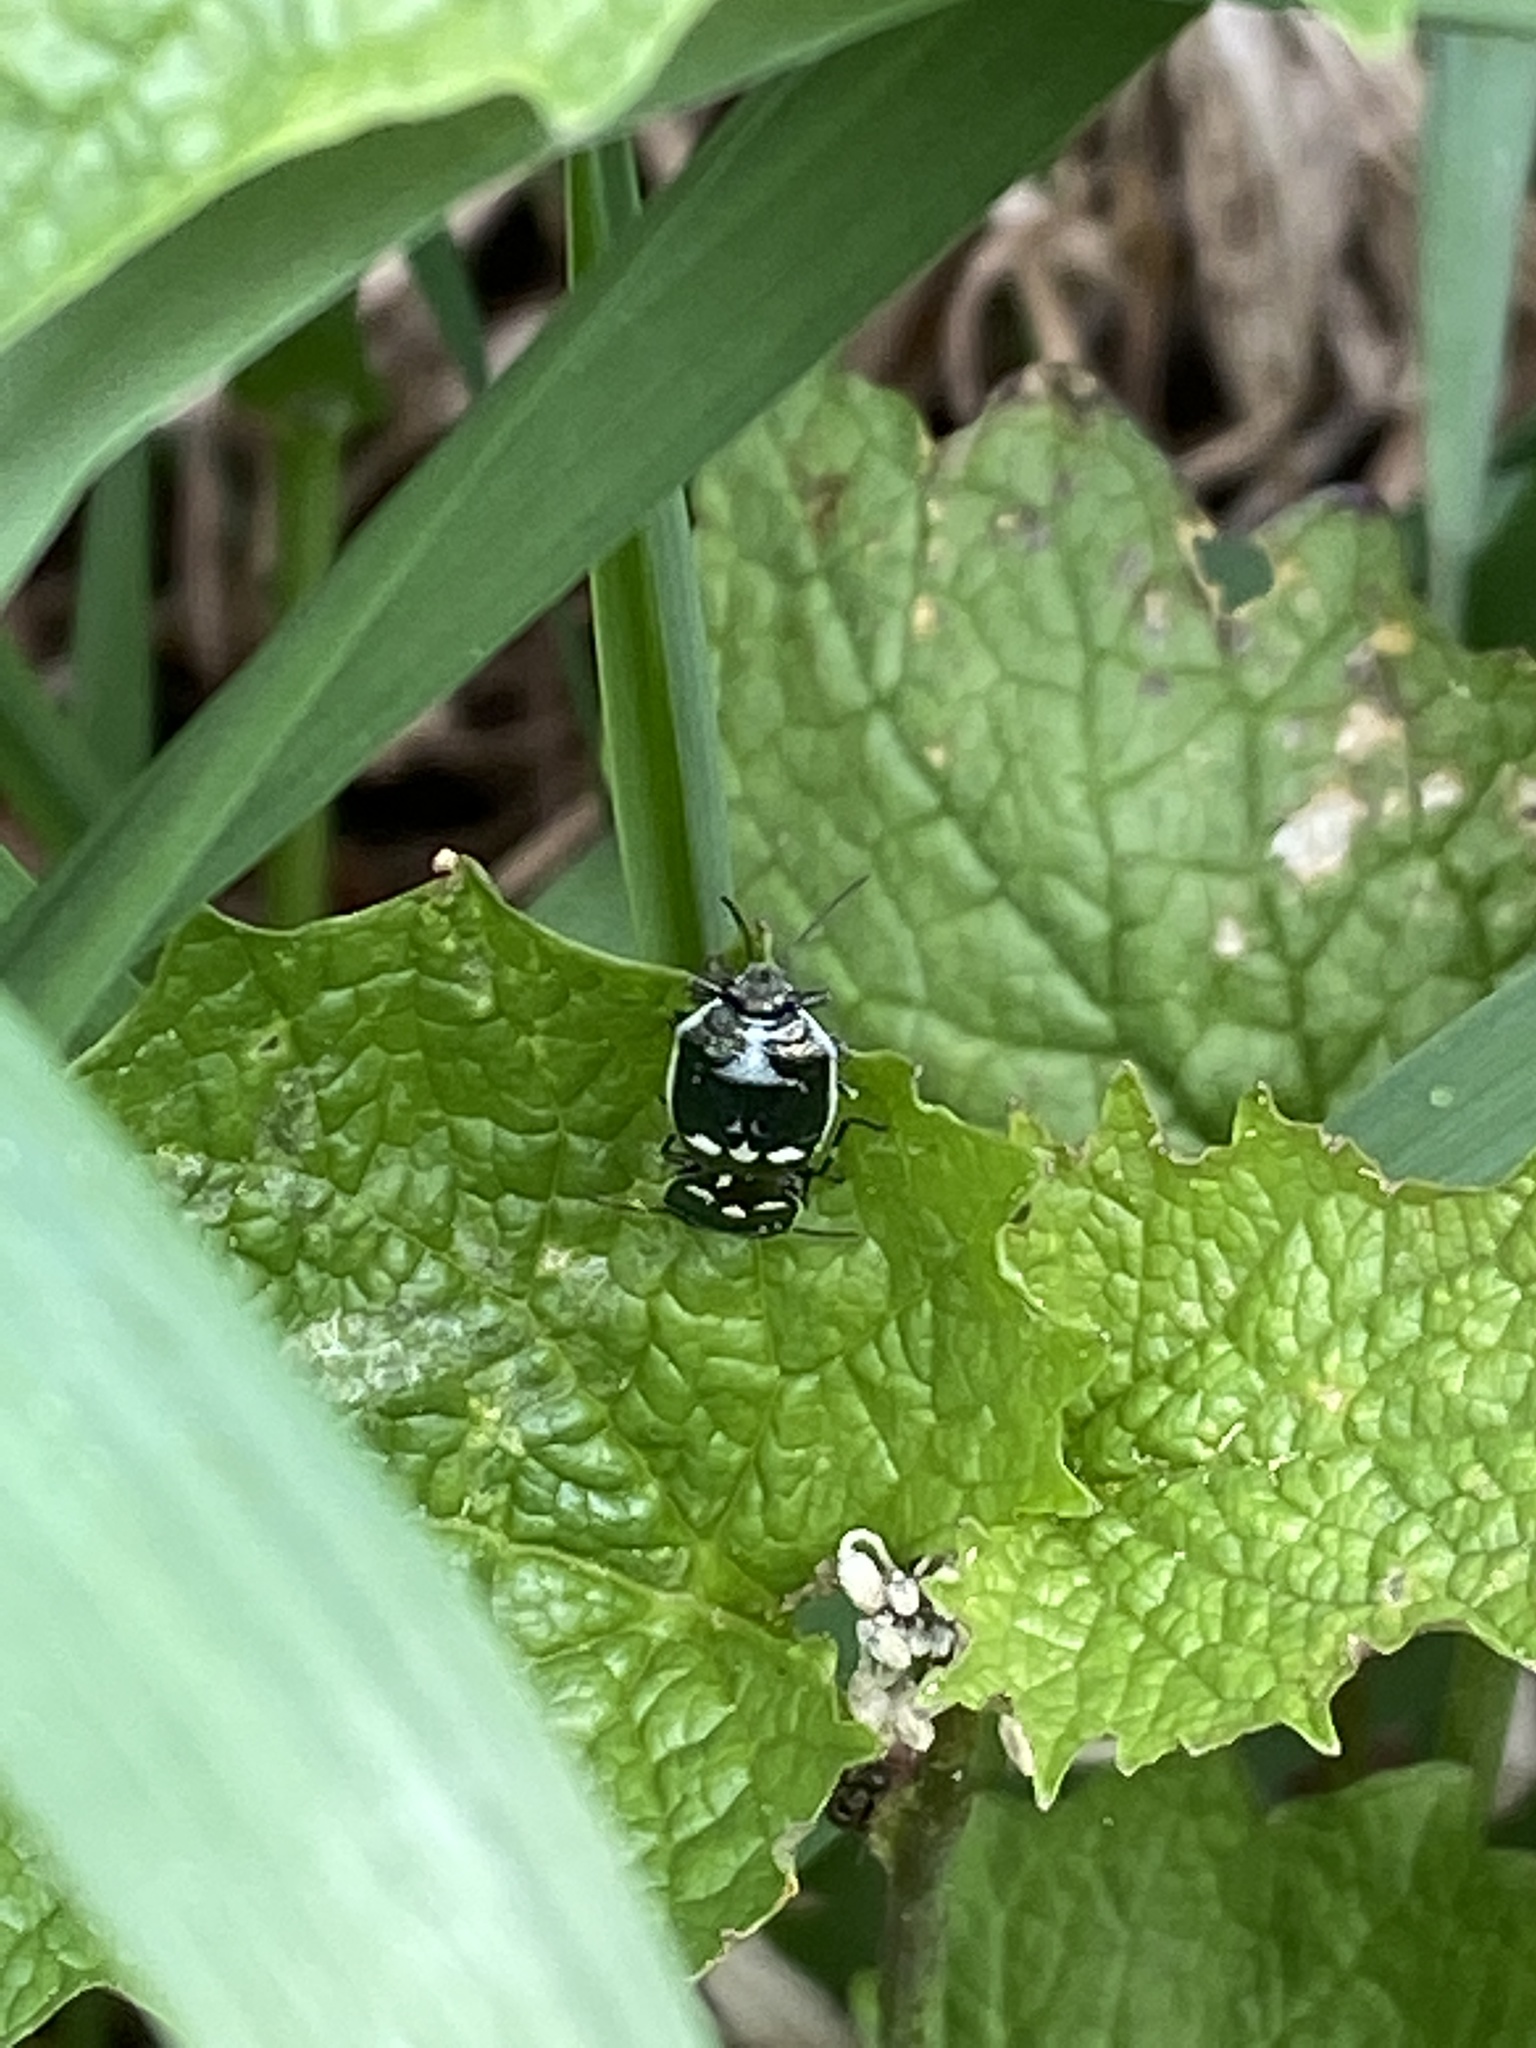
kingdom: Animalia
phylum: Arthropoda
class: Insecta
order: Hemiptera
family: Pentatomidae
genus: Eurydema
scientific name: Eurydema oleracea
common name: Cabbage bug
